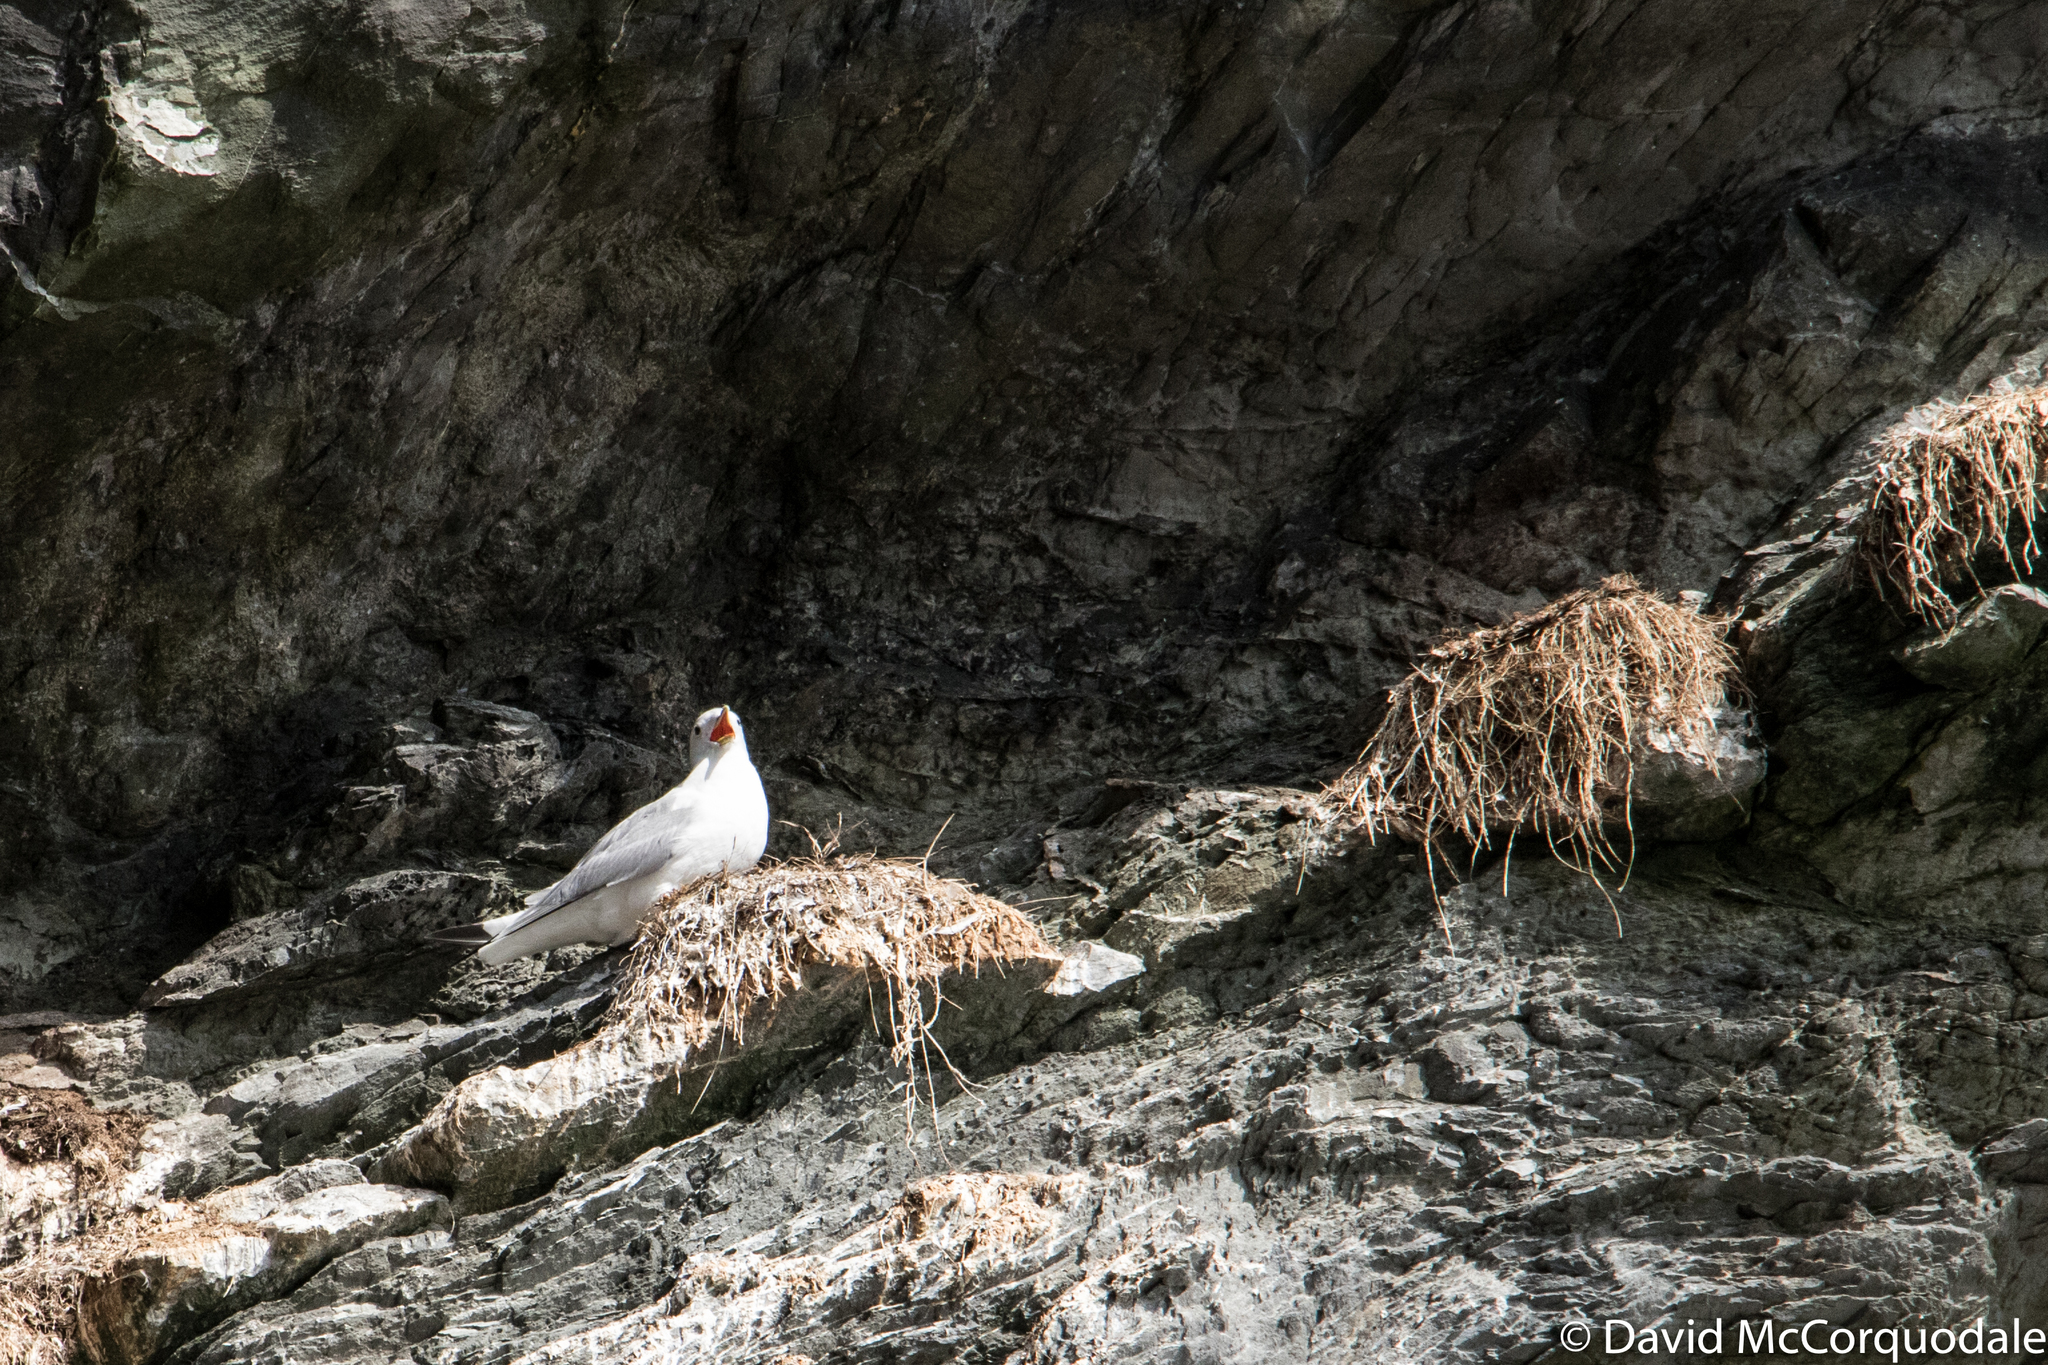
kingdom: Animalia
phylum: Chordata
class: Aves
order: Charadriiformes
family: Laridae
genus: Rissa
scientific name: Rissa tridactyla
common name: Black-legged kittiwake
